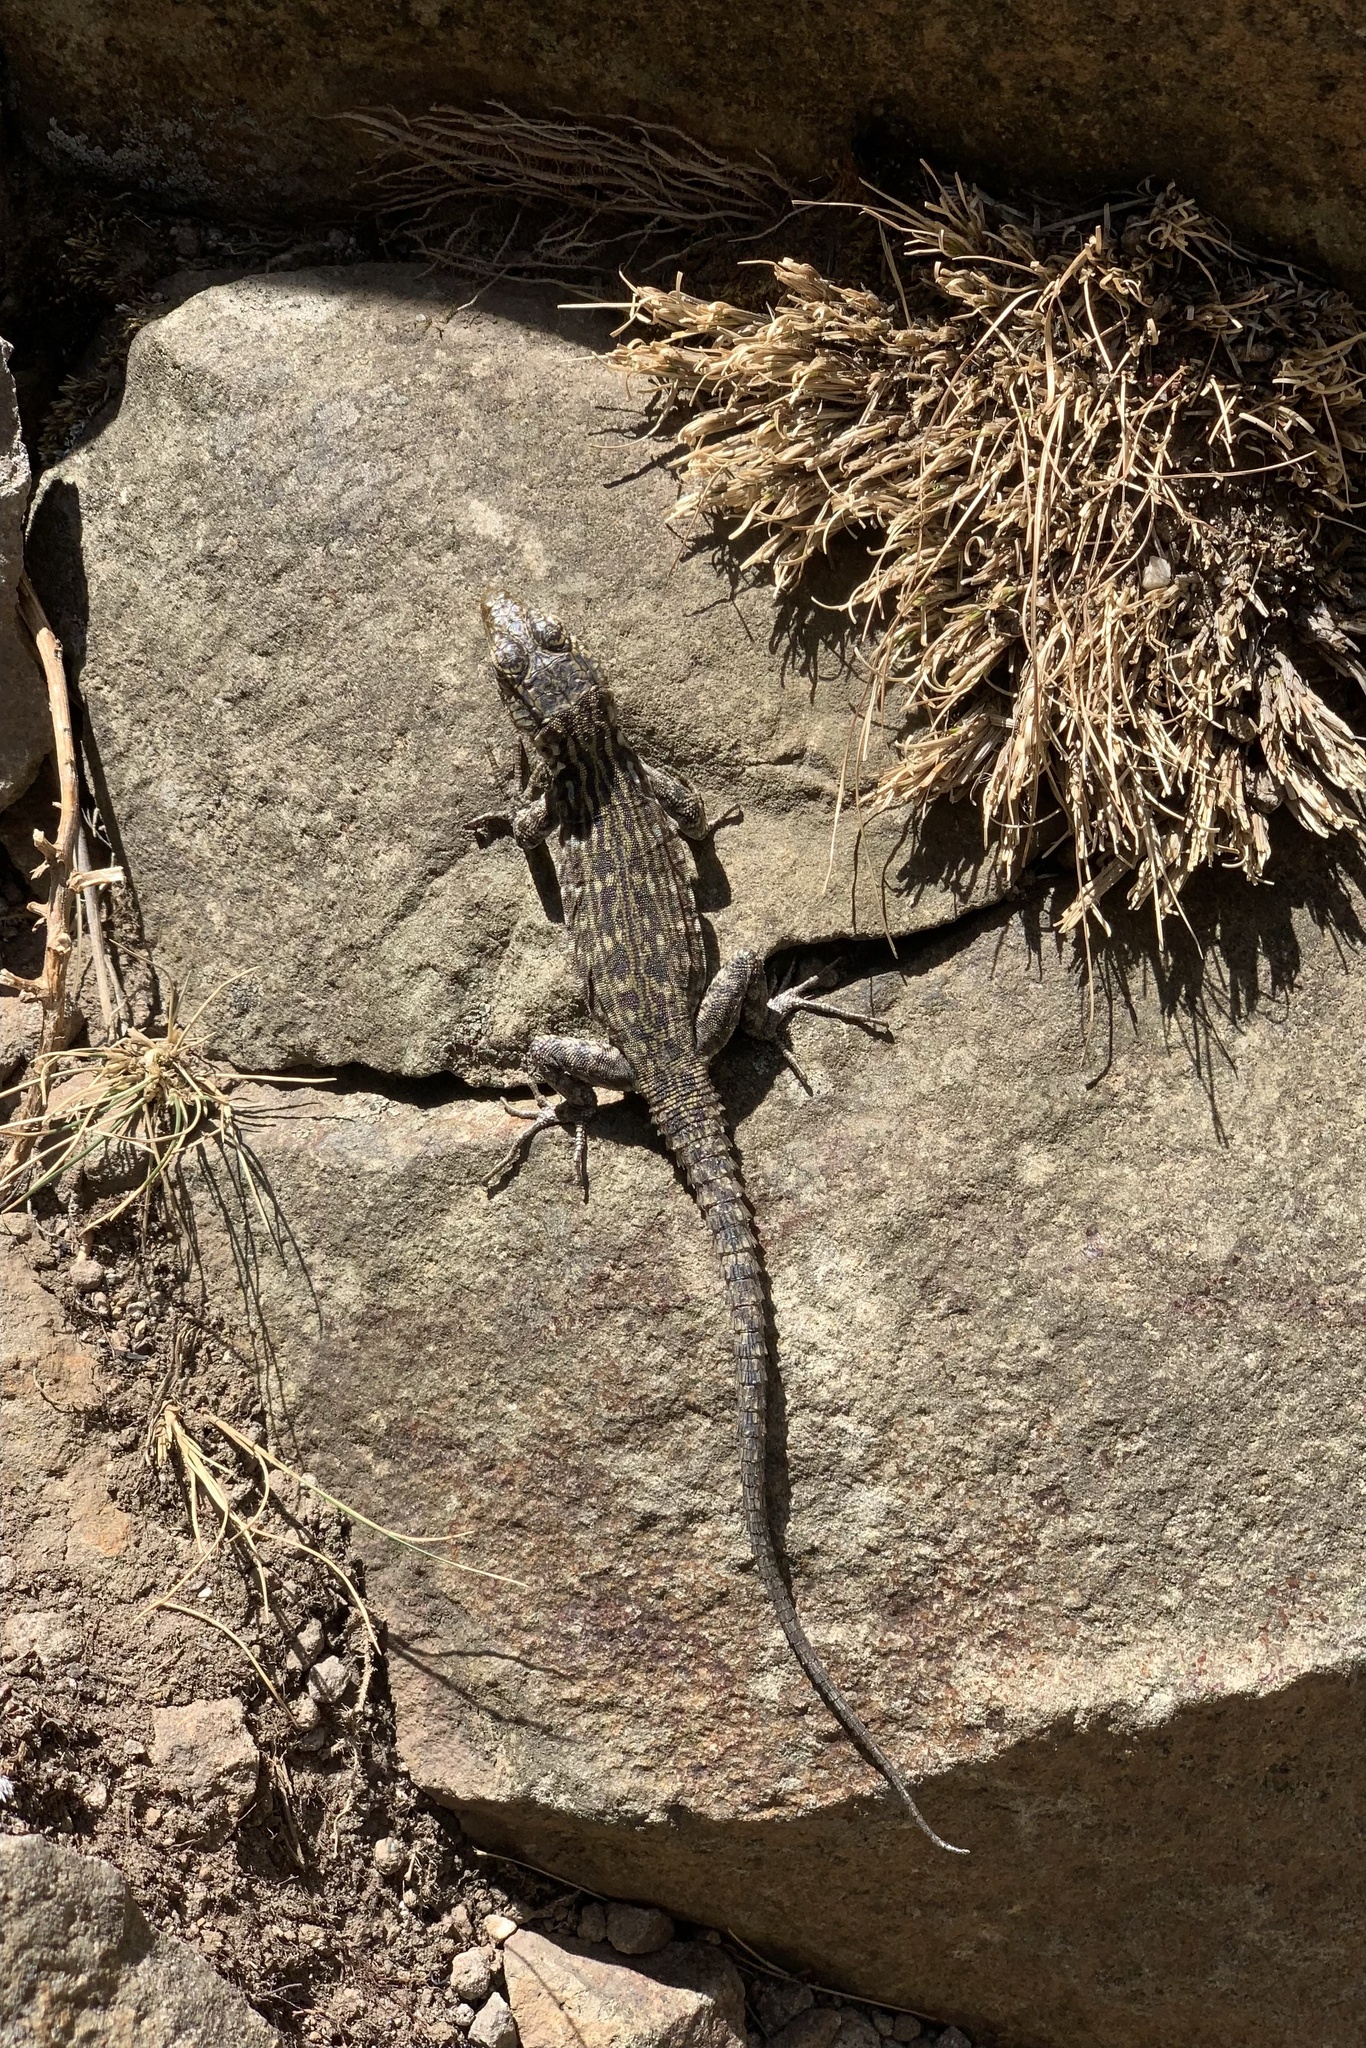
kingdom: Animalia
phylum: Chordata
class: Squamata
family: Cordylidae
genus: Pseudocordylus
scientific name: Pseudocordylus langi
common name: Lang’s crag lizard
